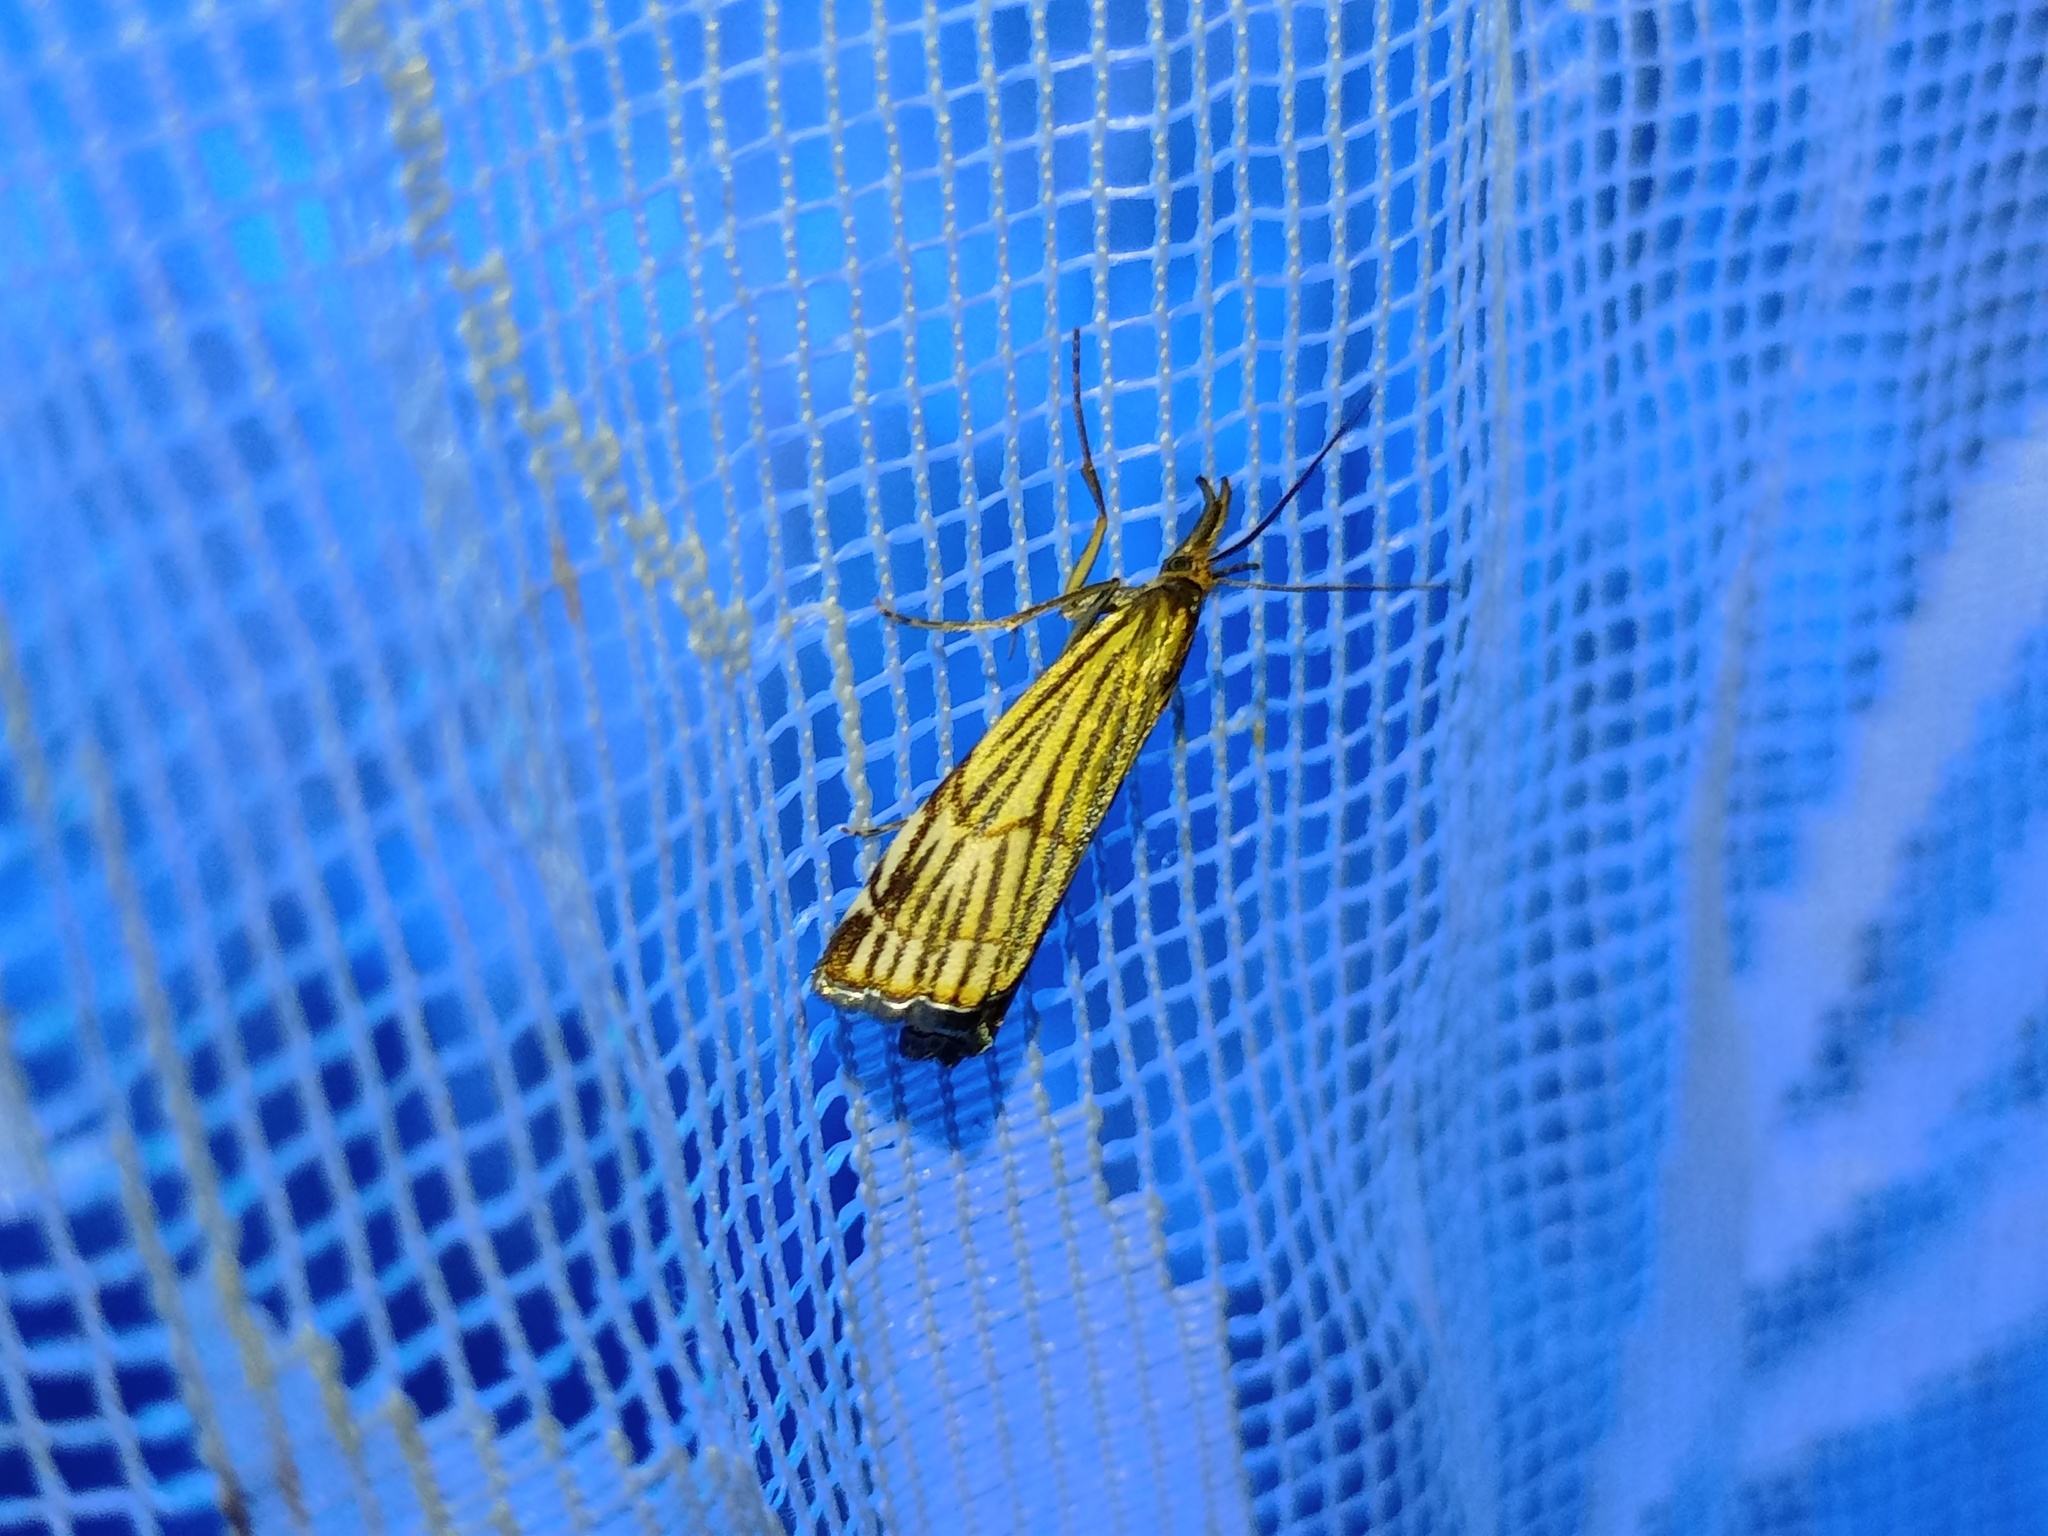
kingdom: Animalia
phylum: Arthropoda
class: Insecta
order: Lepidoptera
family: Crambidae
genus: Chrysocrambus
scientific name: Chrysocrambus Chrysocramboides craterellus
